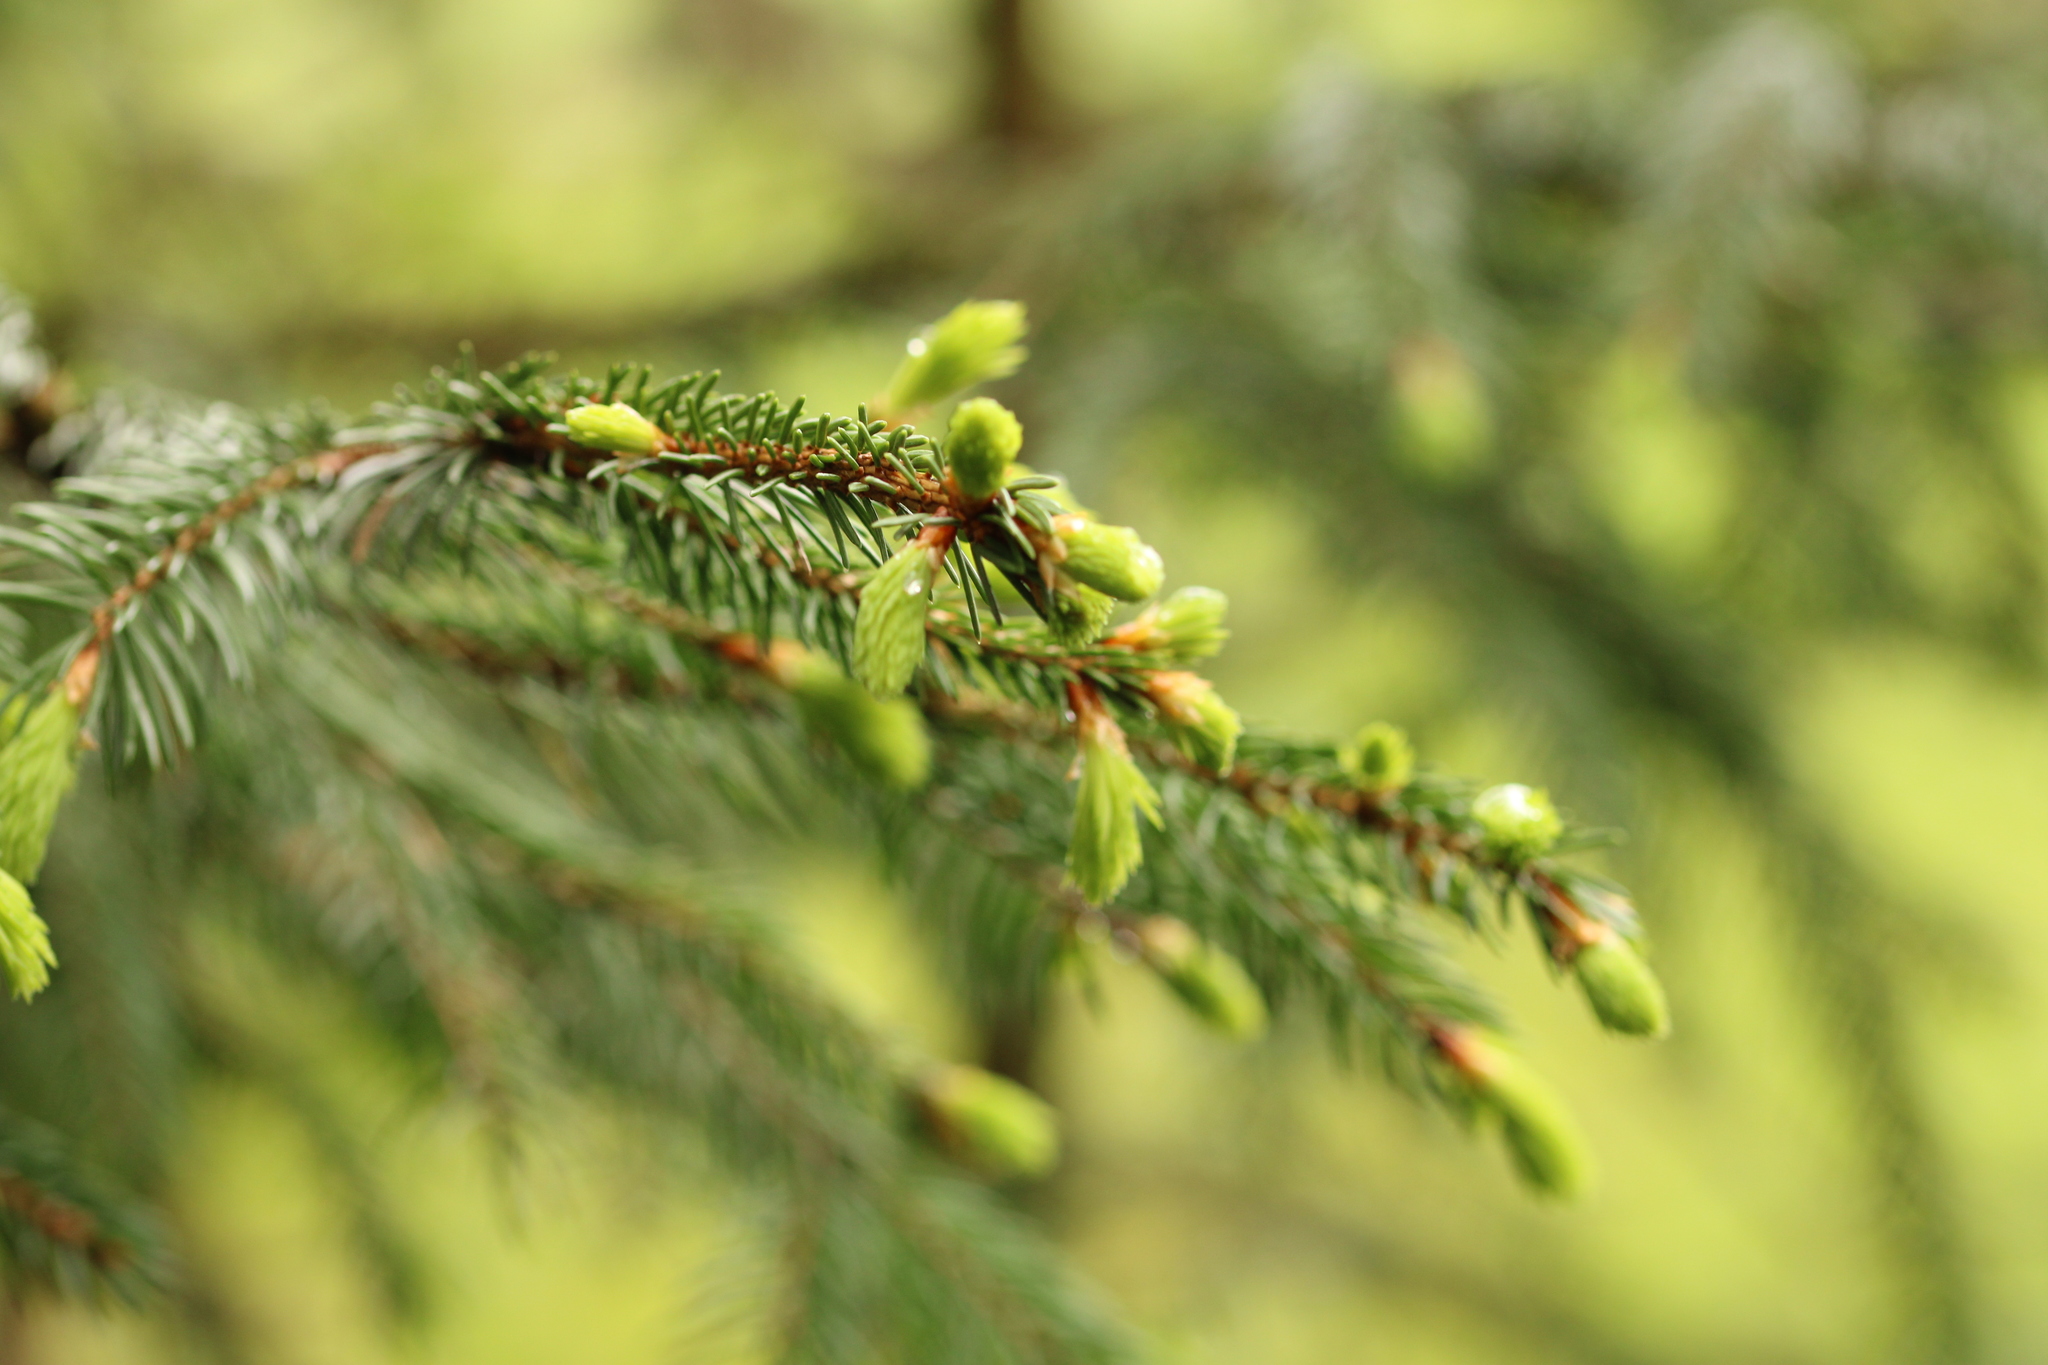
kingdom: Plantae
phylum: Tracheophyta
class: Pinopsida
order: Pinales
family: Pinaceae
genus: Picea
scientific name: Picea abies
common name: Norway spruce
